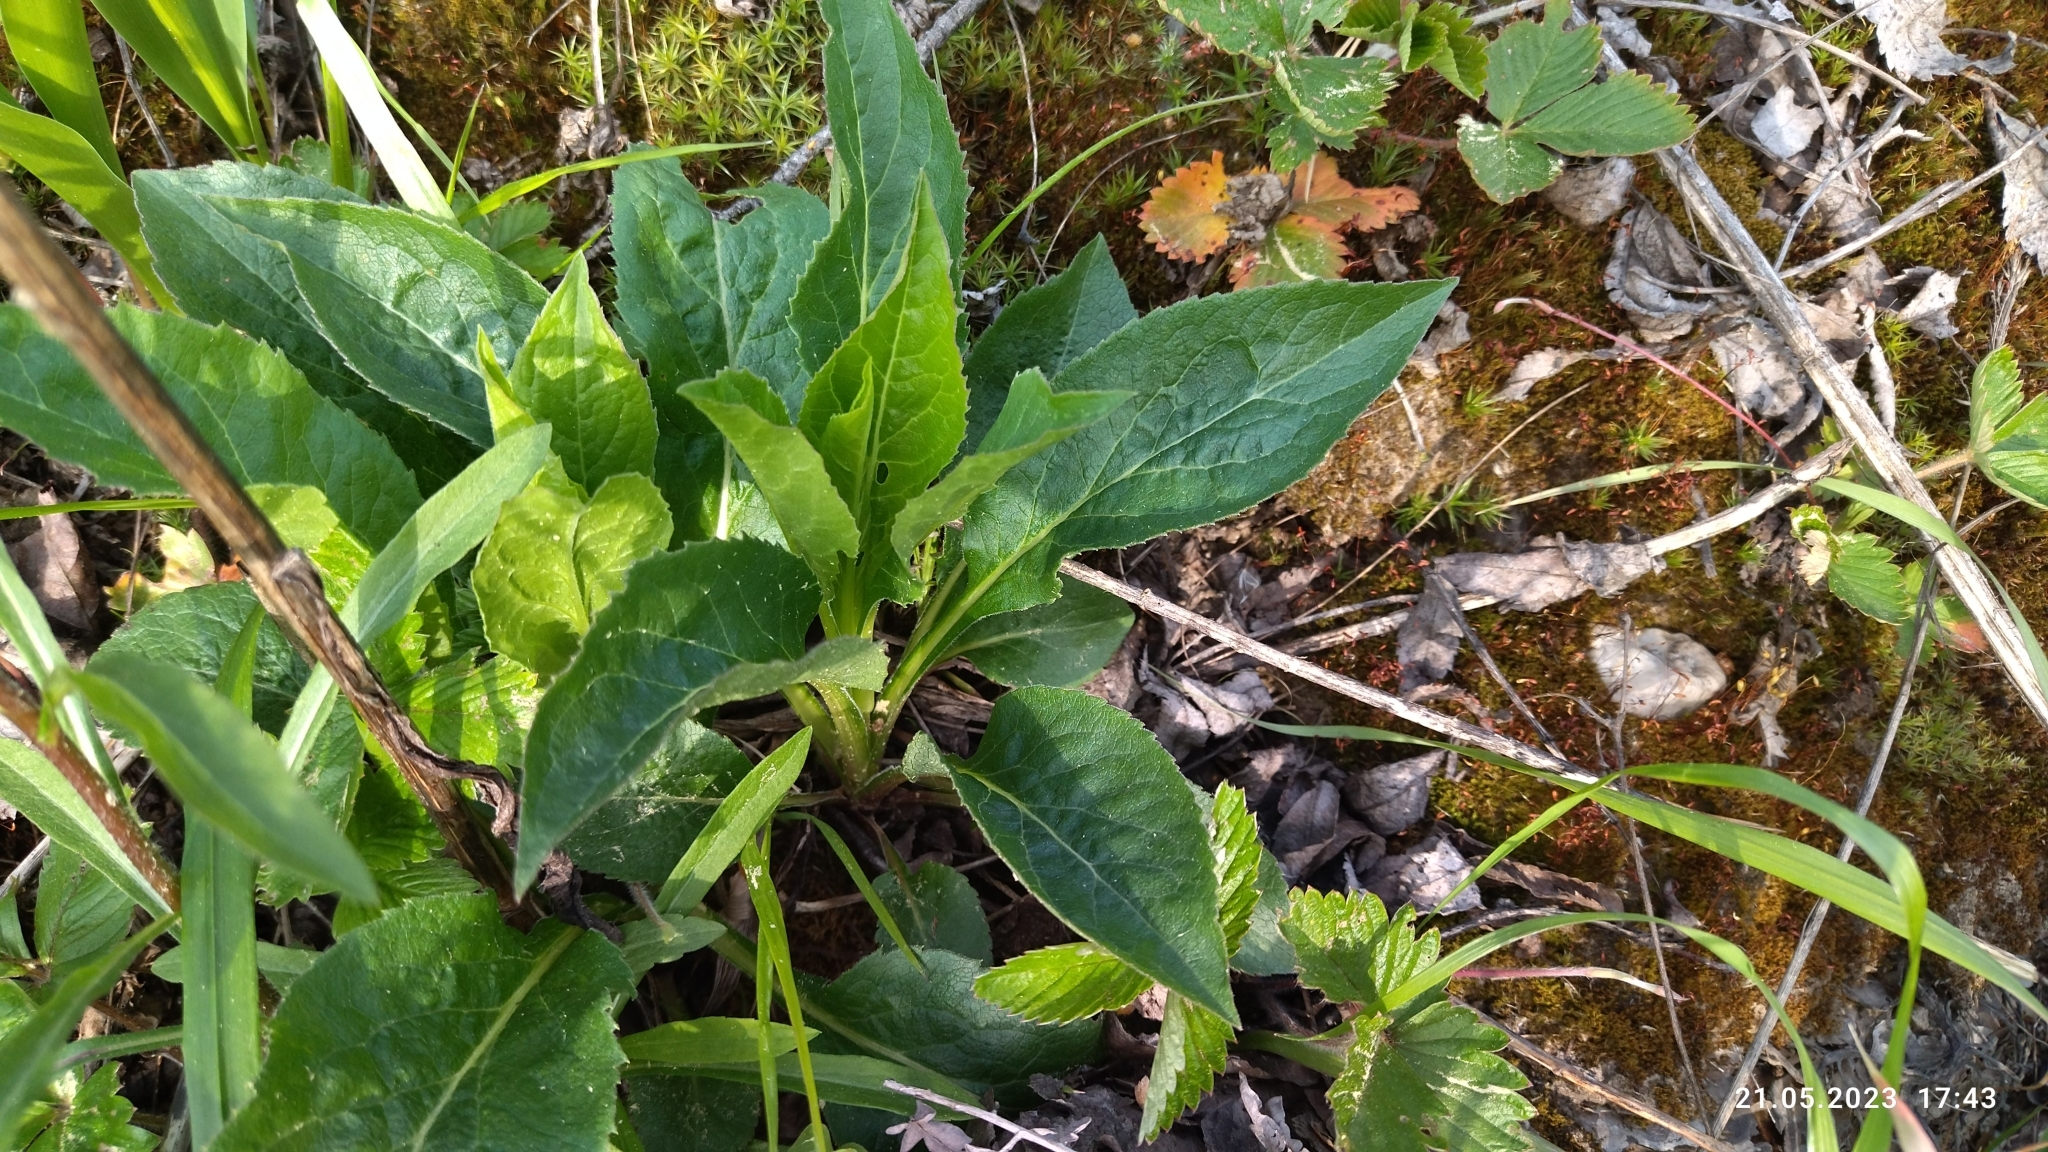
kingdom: Plantae
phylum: Tracheophyta
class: Magnoliopsida
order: Asterales
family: Asteraceae
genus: Solidago
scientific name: Solidago virgaurea
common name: Goldenrod
